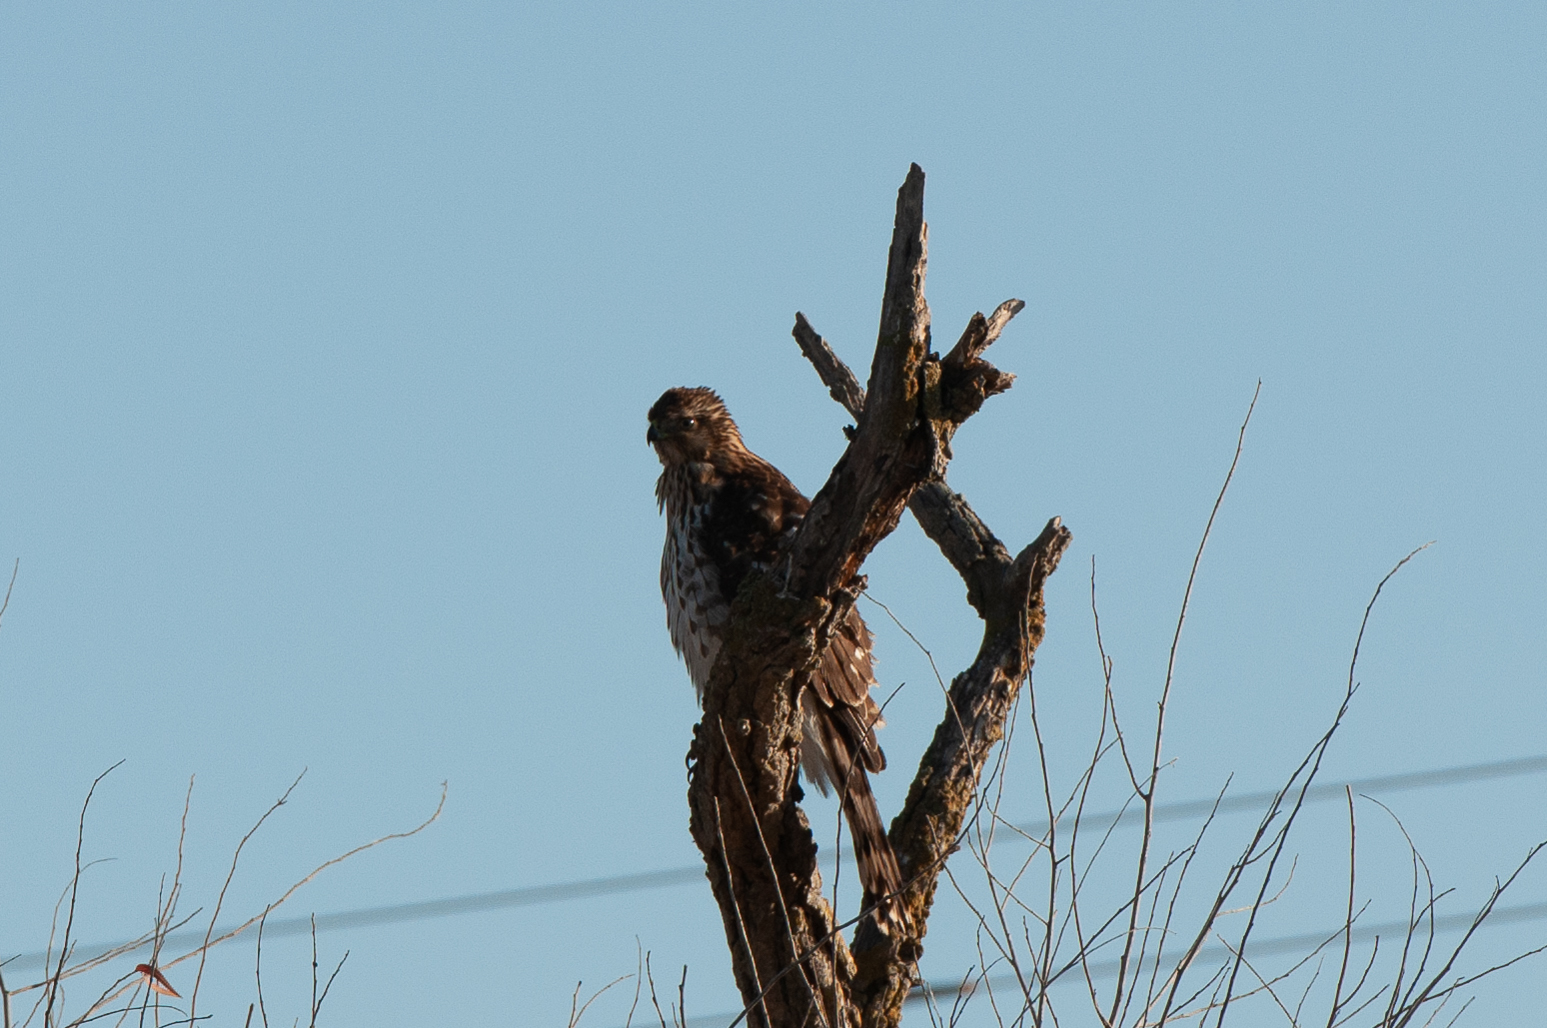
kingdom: Animalia
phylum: Chordata
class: Aves
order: Accipitriformes
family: Accipitridae
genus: Accipiter
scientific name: Accipiter cooperii
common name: Cooper's hawk
